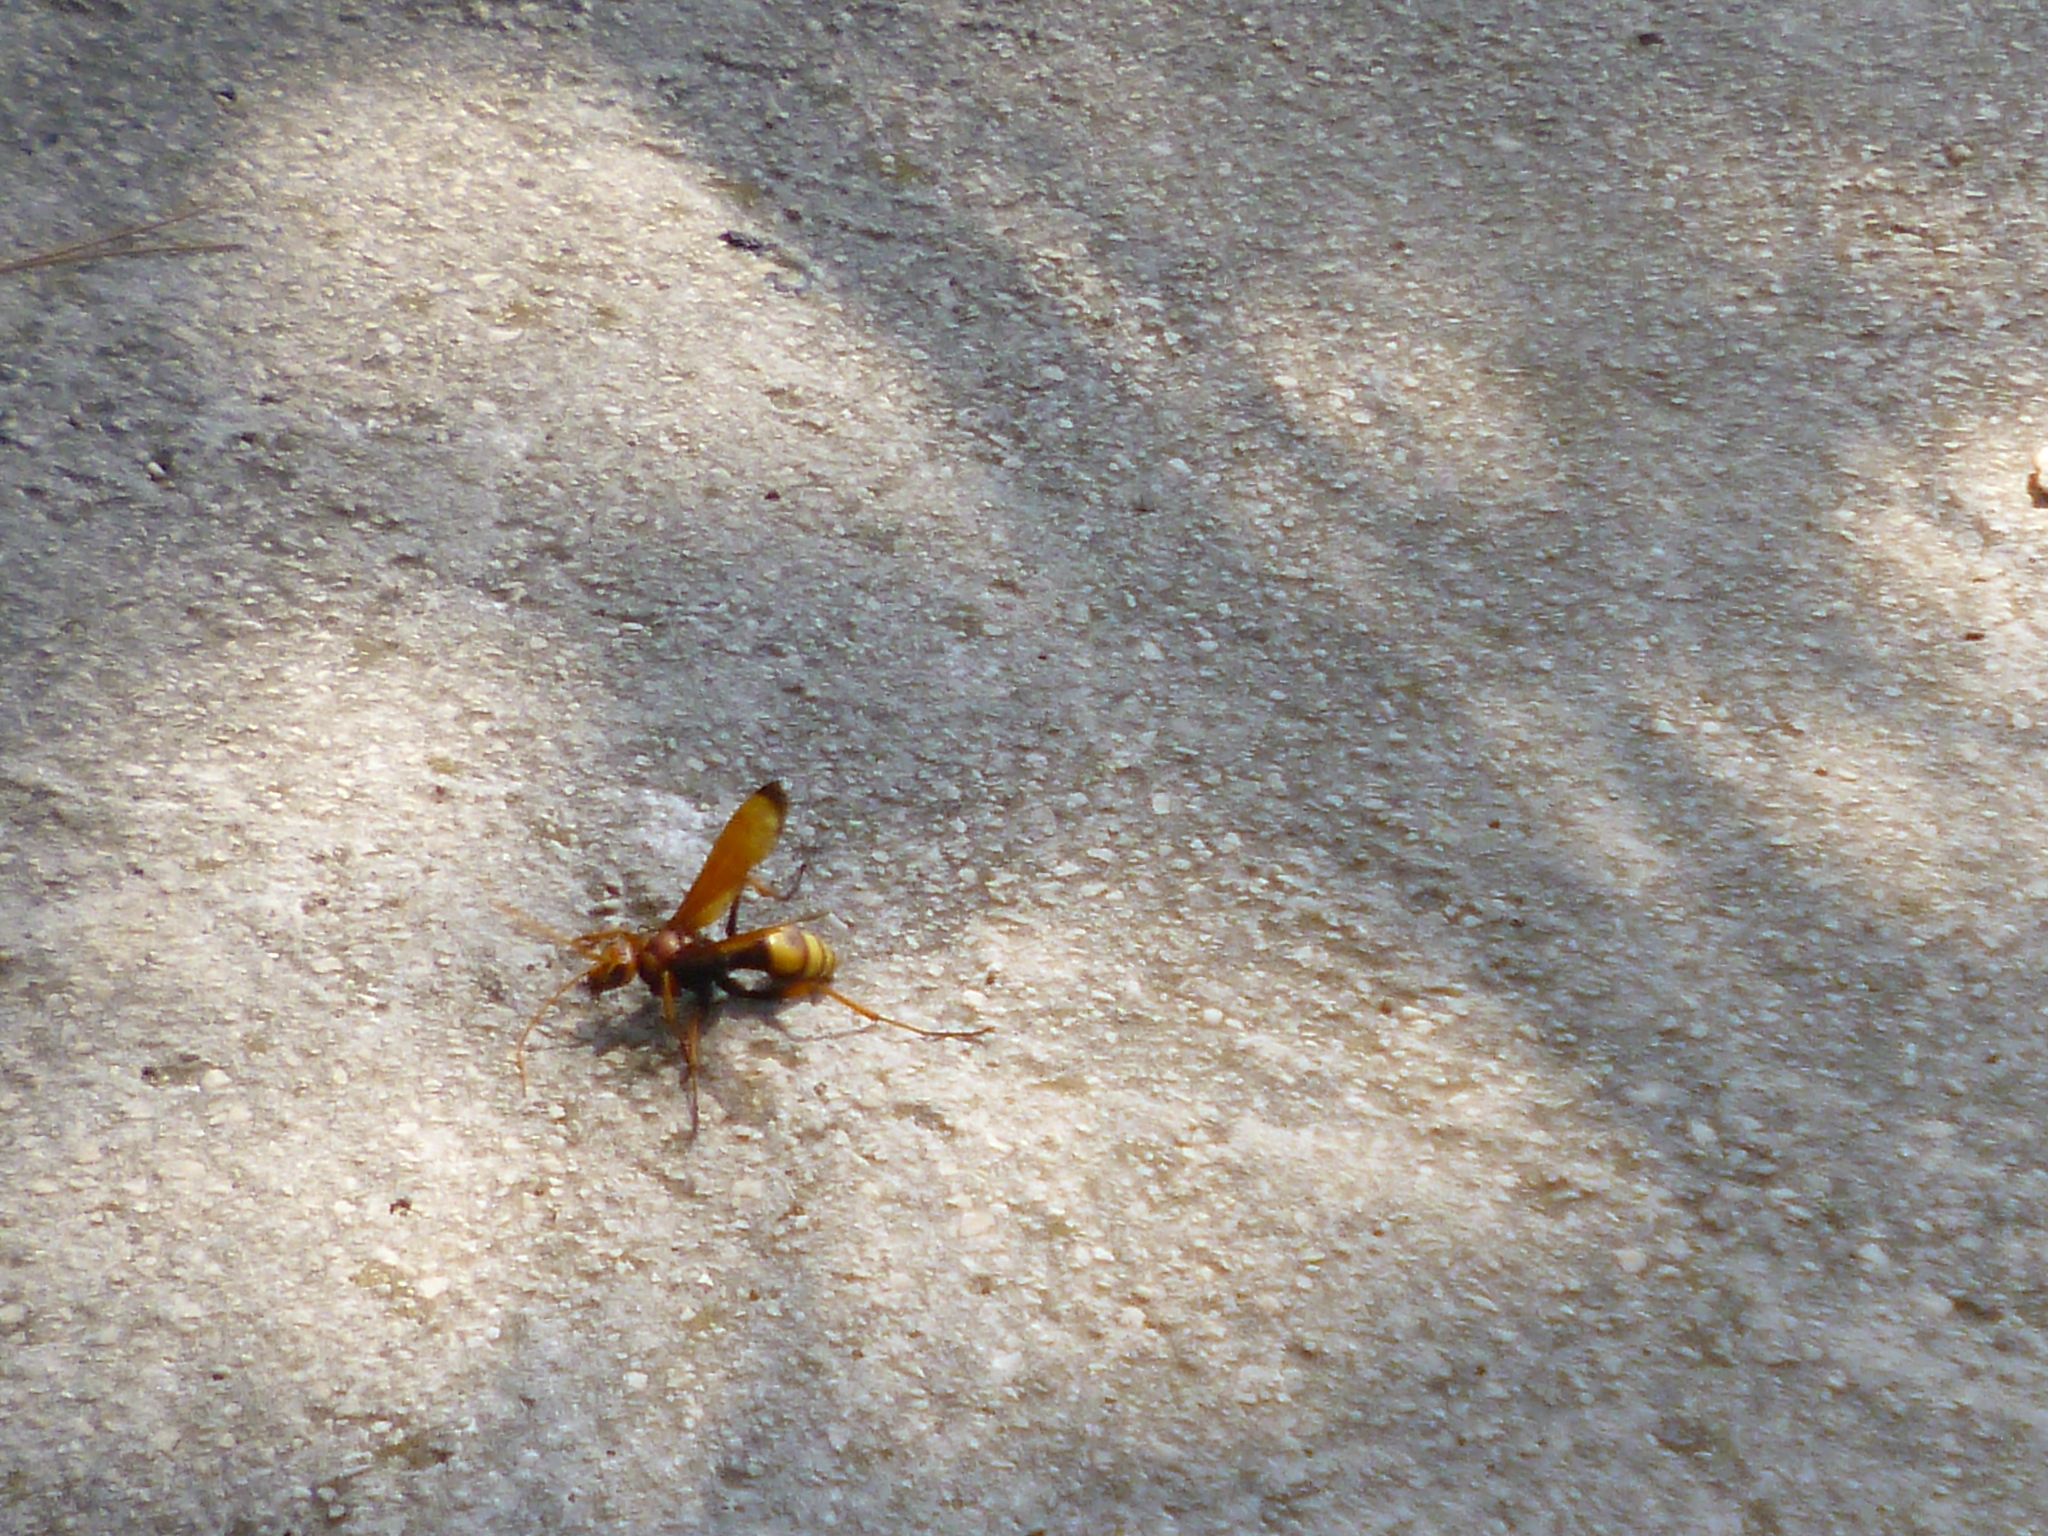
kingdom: Animalia
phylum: Arthropoda
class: Insecta
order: Hymenoptera
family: Pompilidae
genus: Cryptocheilus
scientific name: Cryptocheilus alternatus
